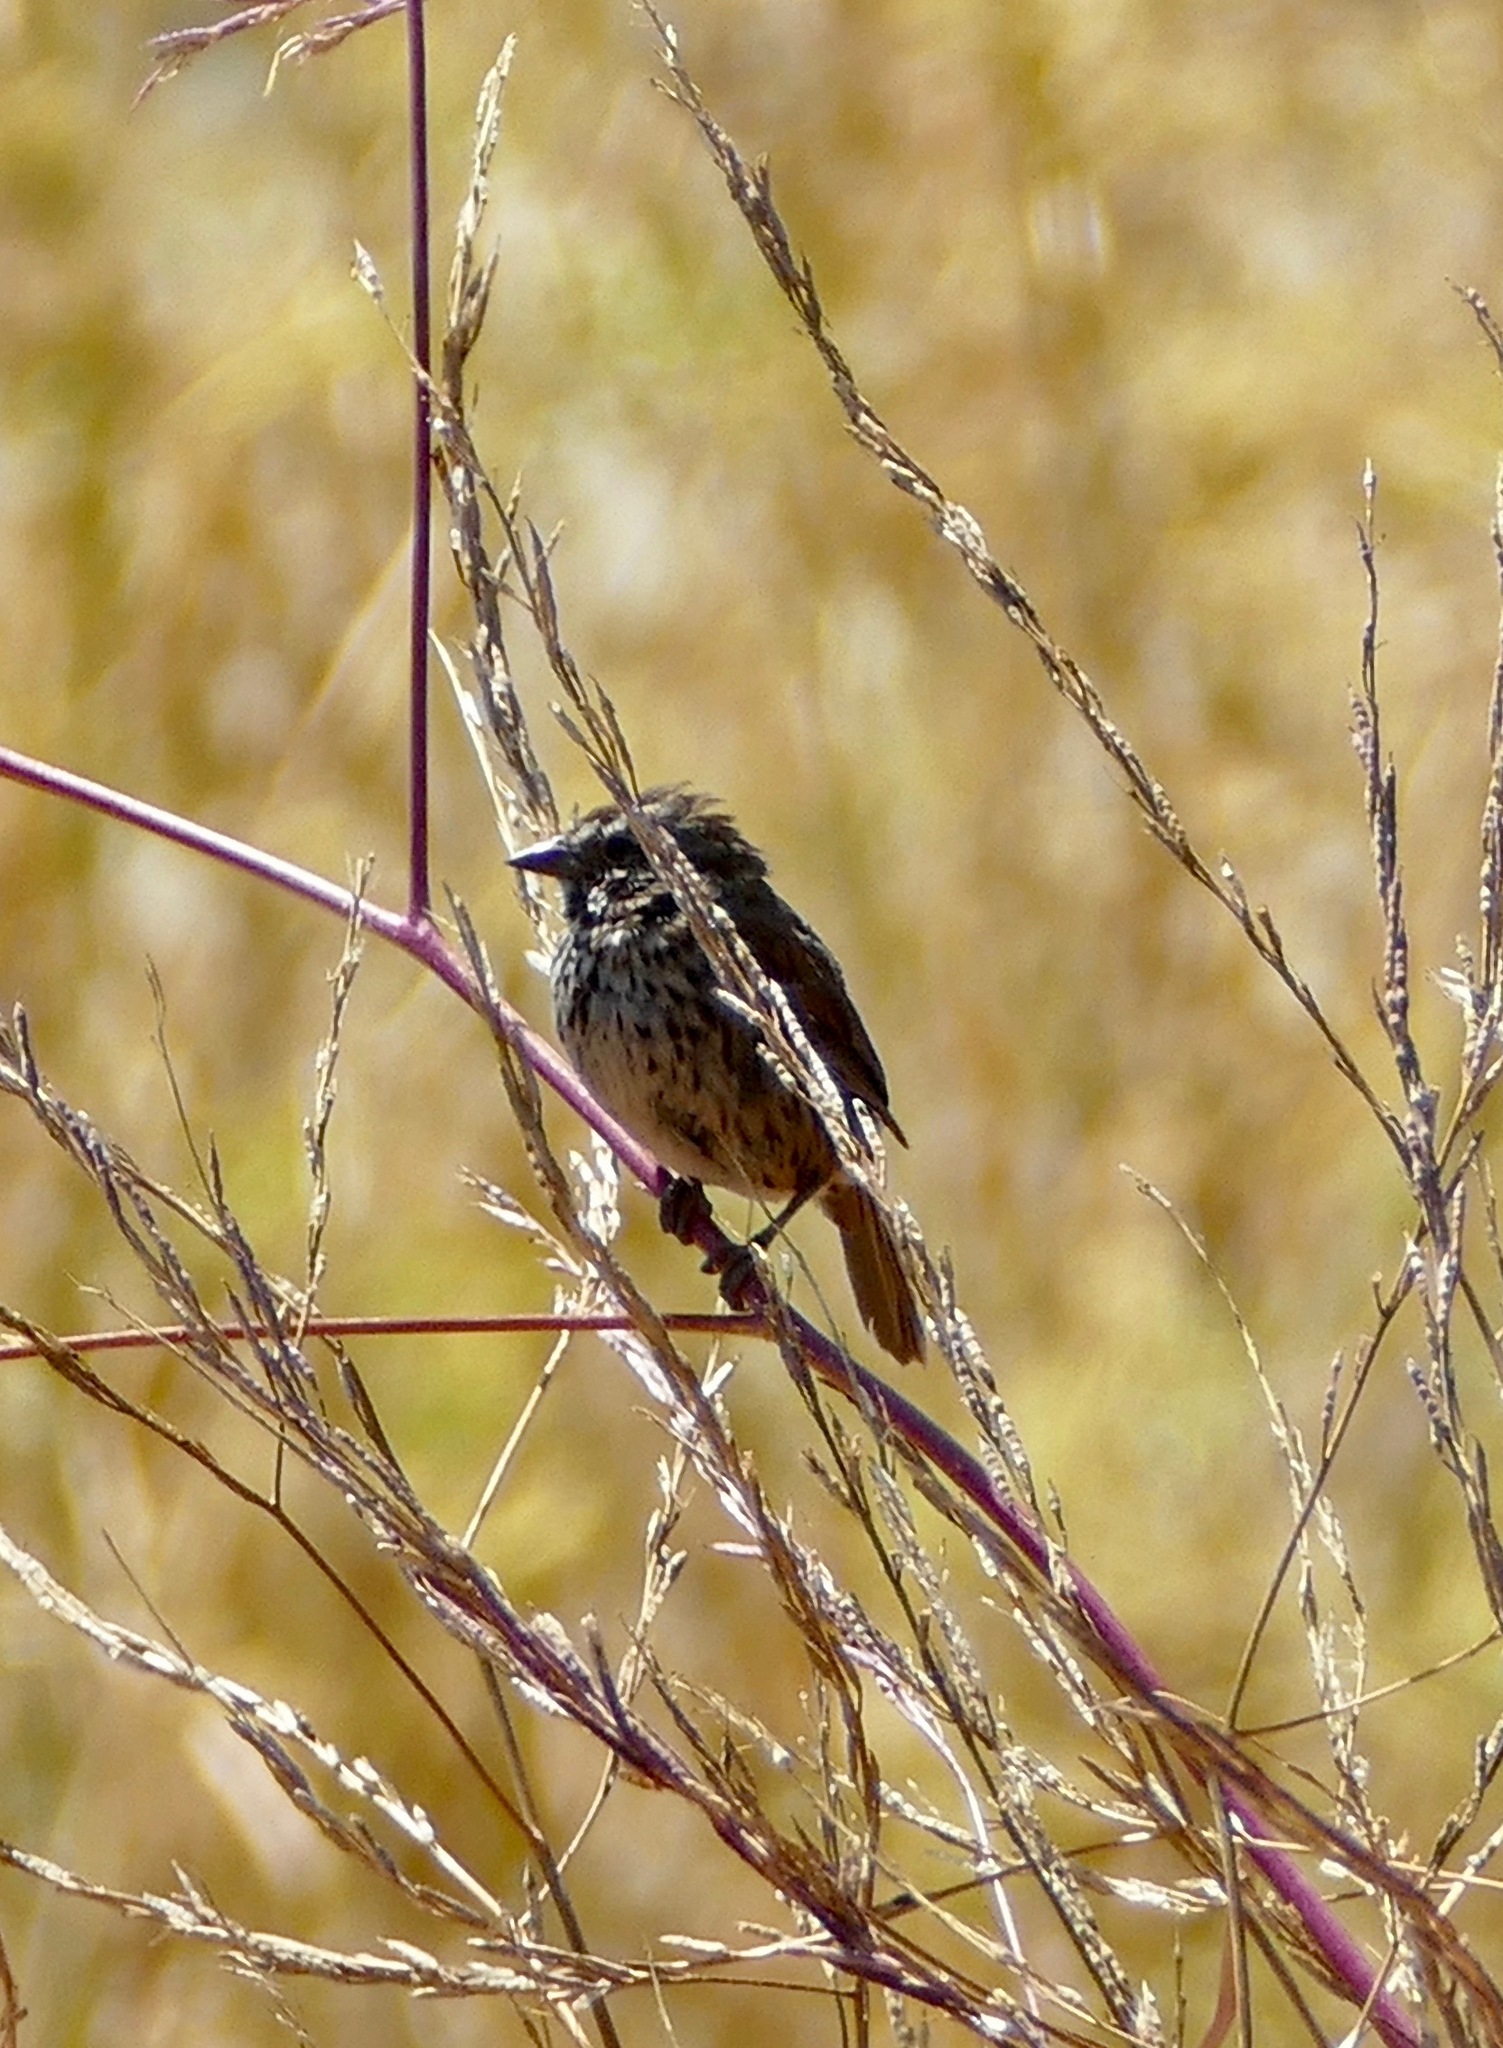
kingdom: Animalia
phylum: Chordata
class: Aves
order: Passeriformes
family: Passerellidae
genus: Melospiza
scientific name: Melospiza melodia
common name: Song sparrow
